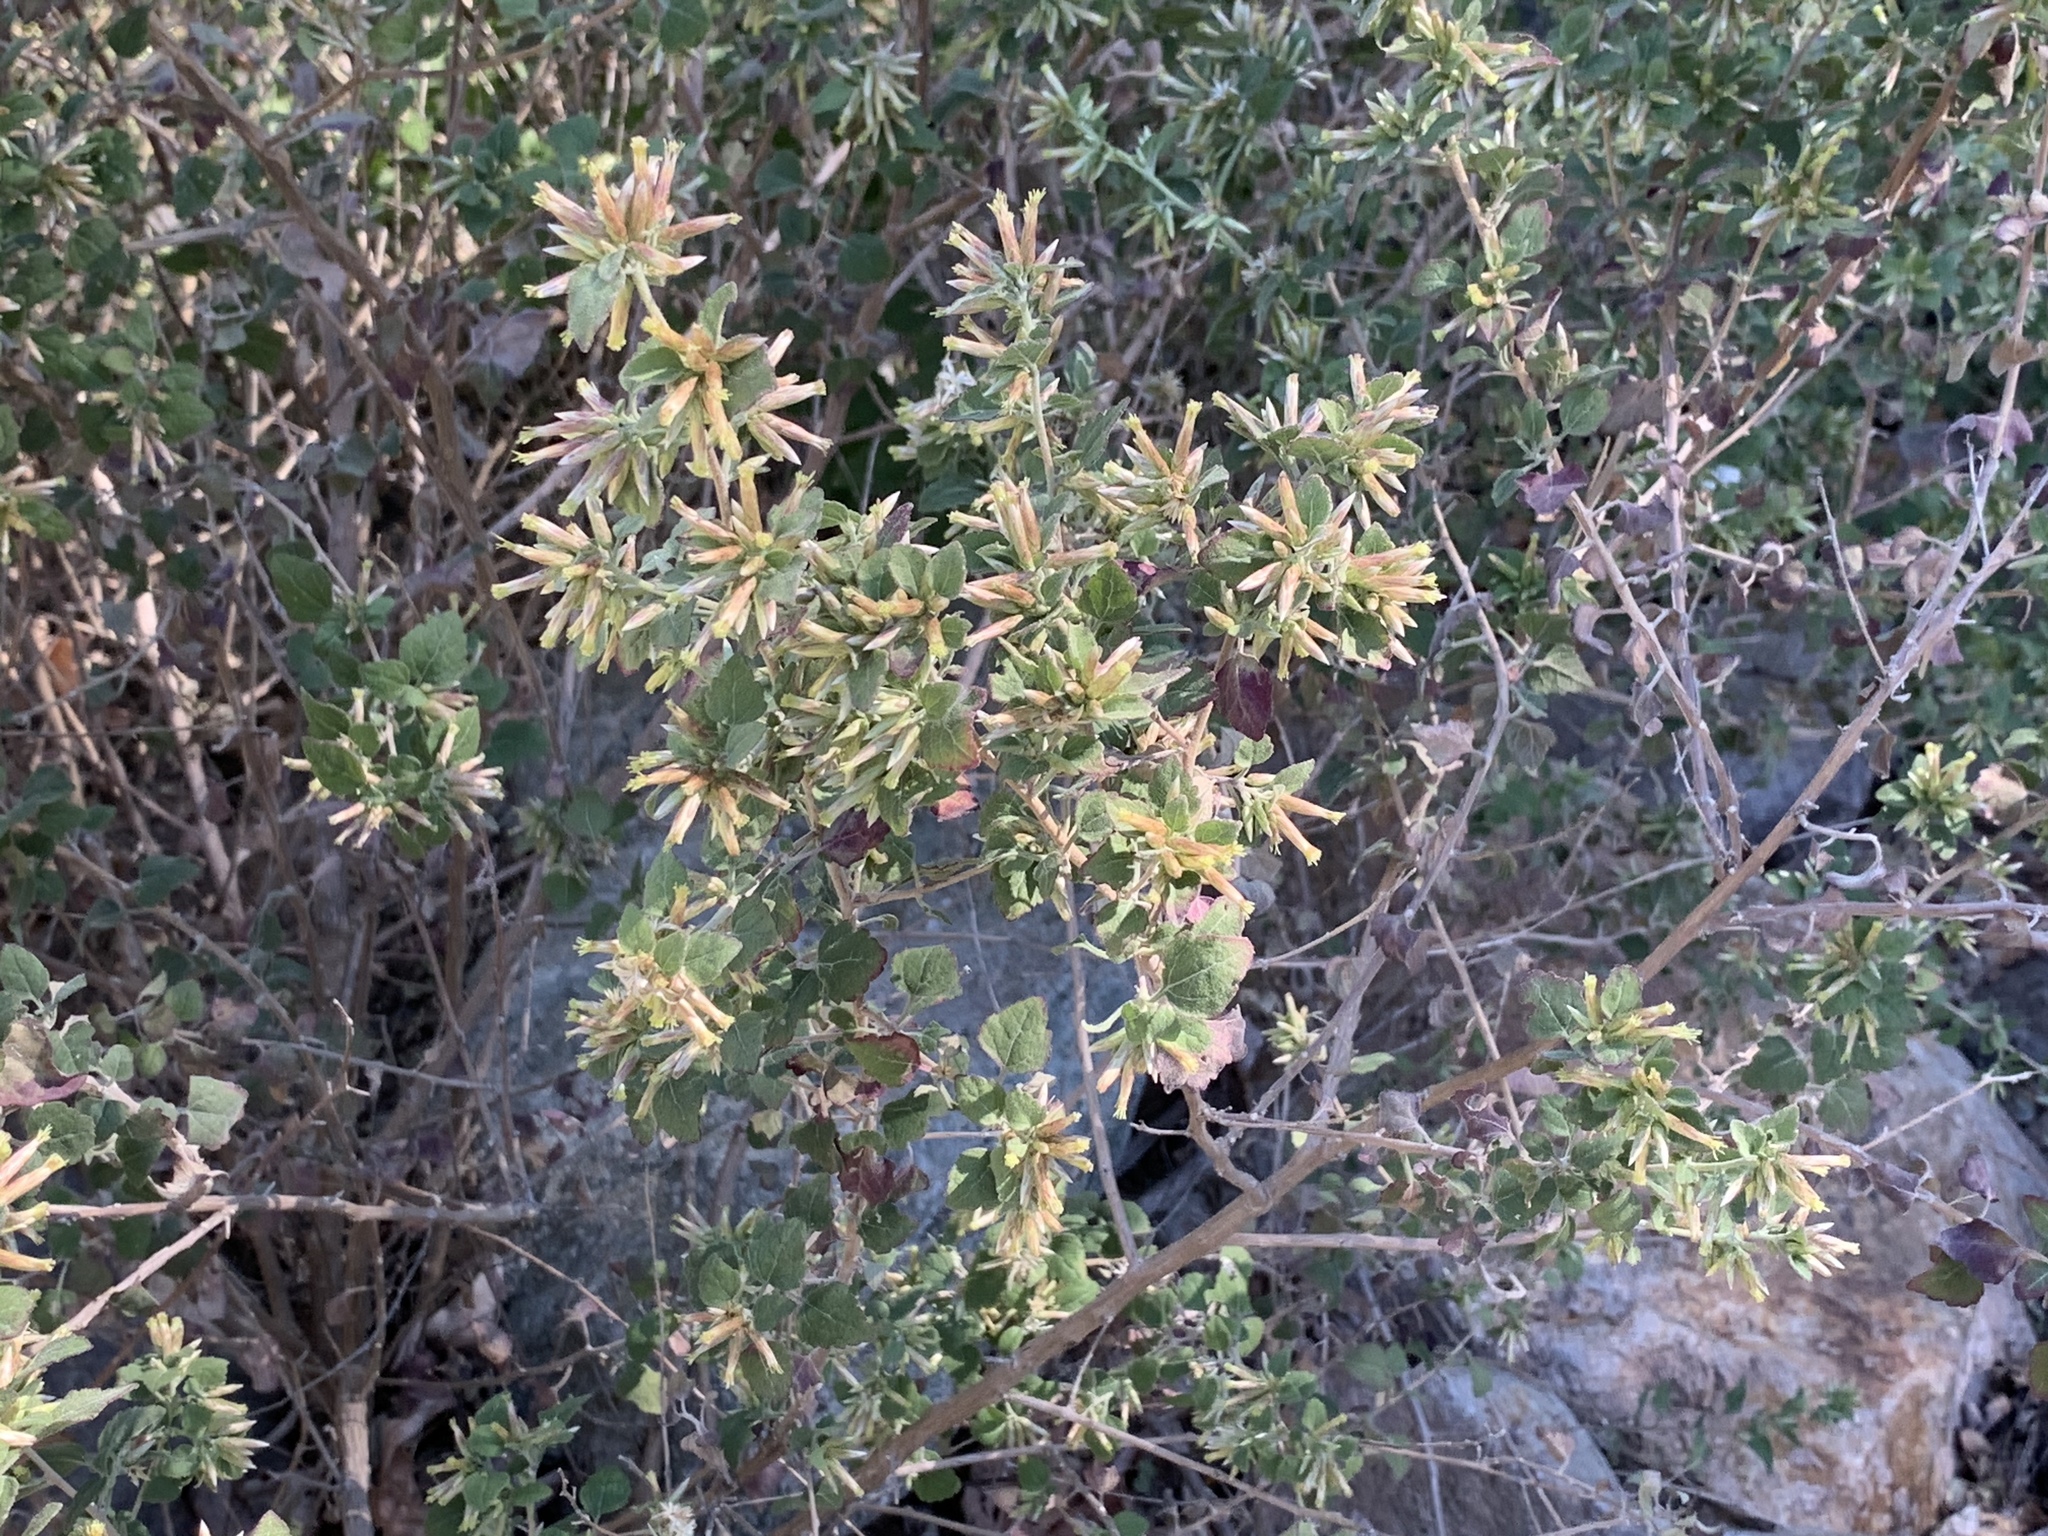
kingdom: Plantae
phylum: Tracheophyta
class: Magnoliopsida
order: Asterales
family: Asteraceae
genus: Brickellia
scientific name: Brickellia californica
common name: California brickellbush
